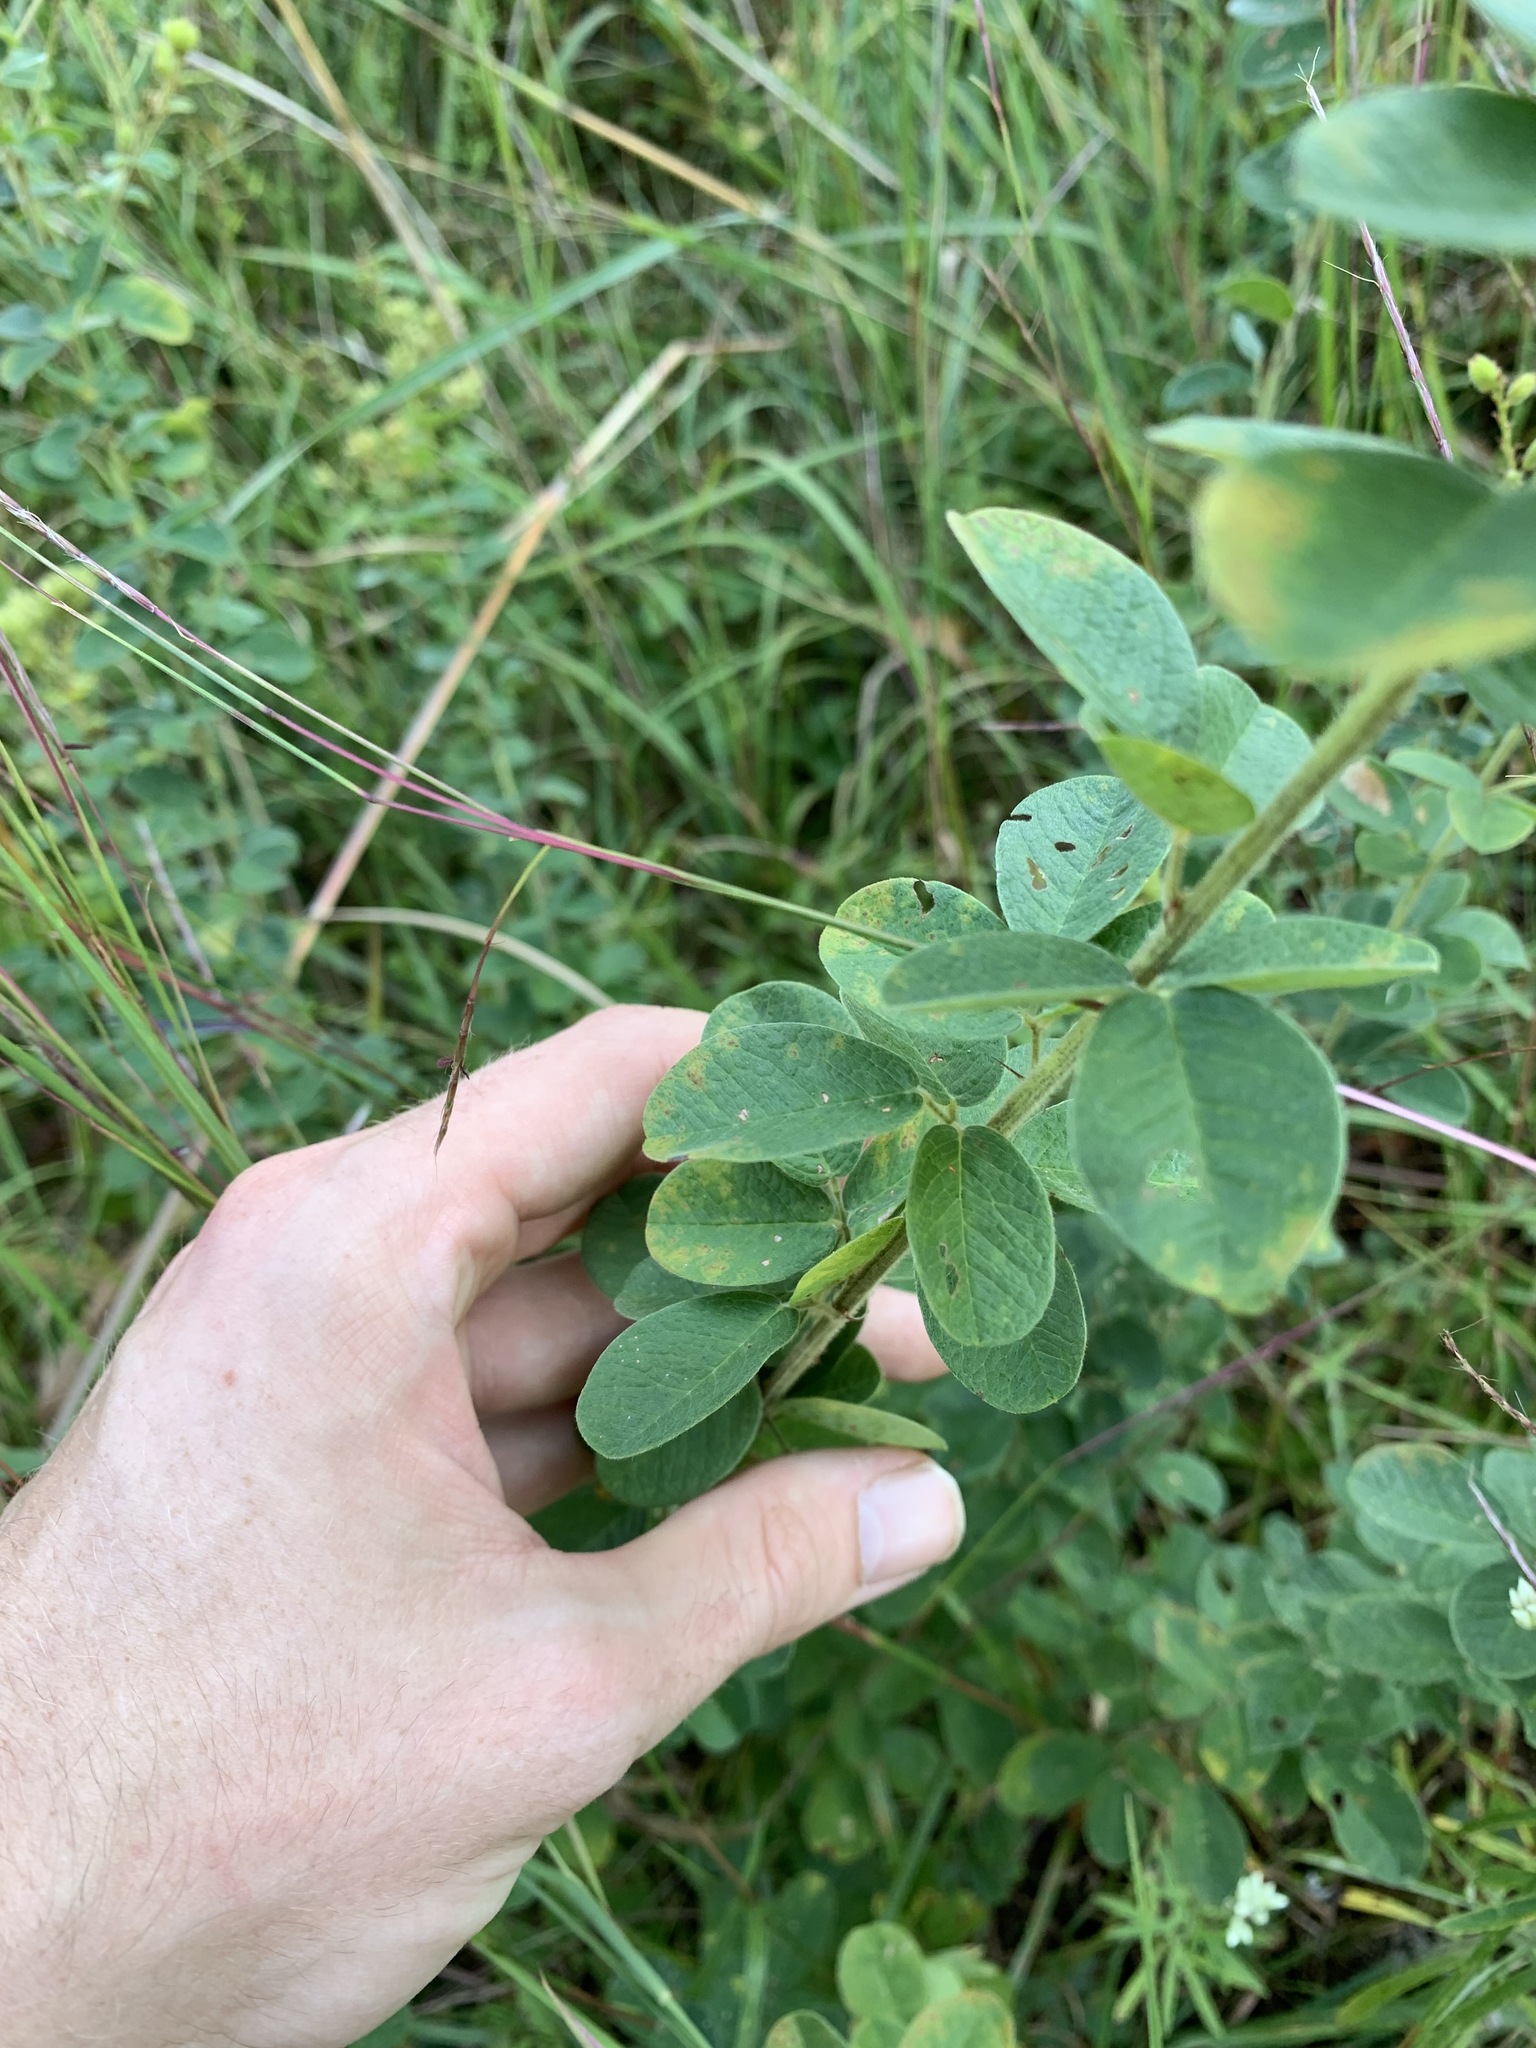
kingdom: Plantae
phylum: Tracheophyta
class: Magnoliopsida
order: Fabales
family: Fabaceae
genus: Lespedeza
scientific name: Lespedeza hirta
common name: Hairy lespedeza
